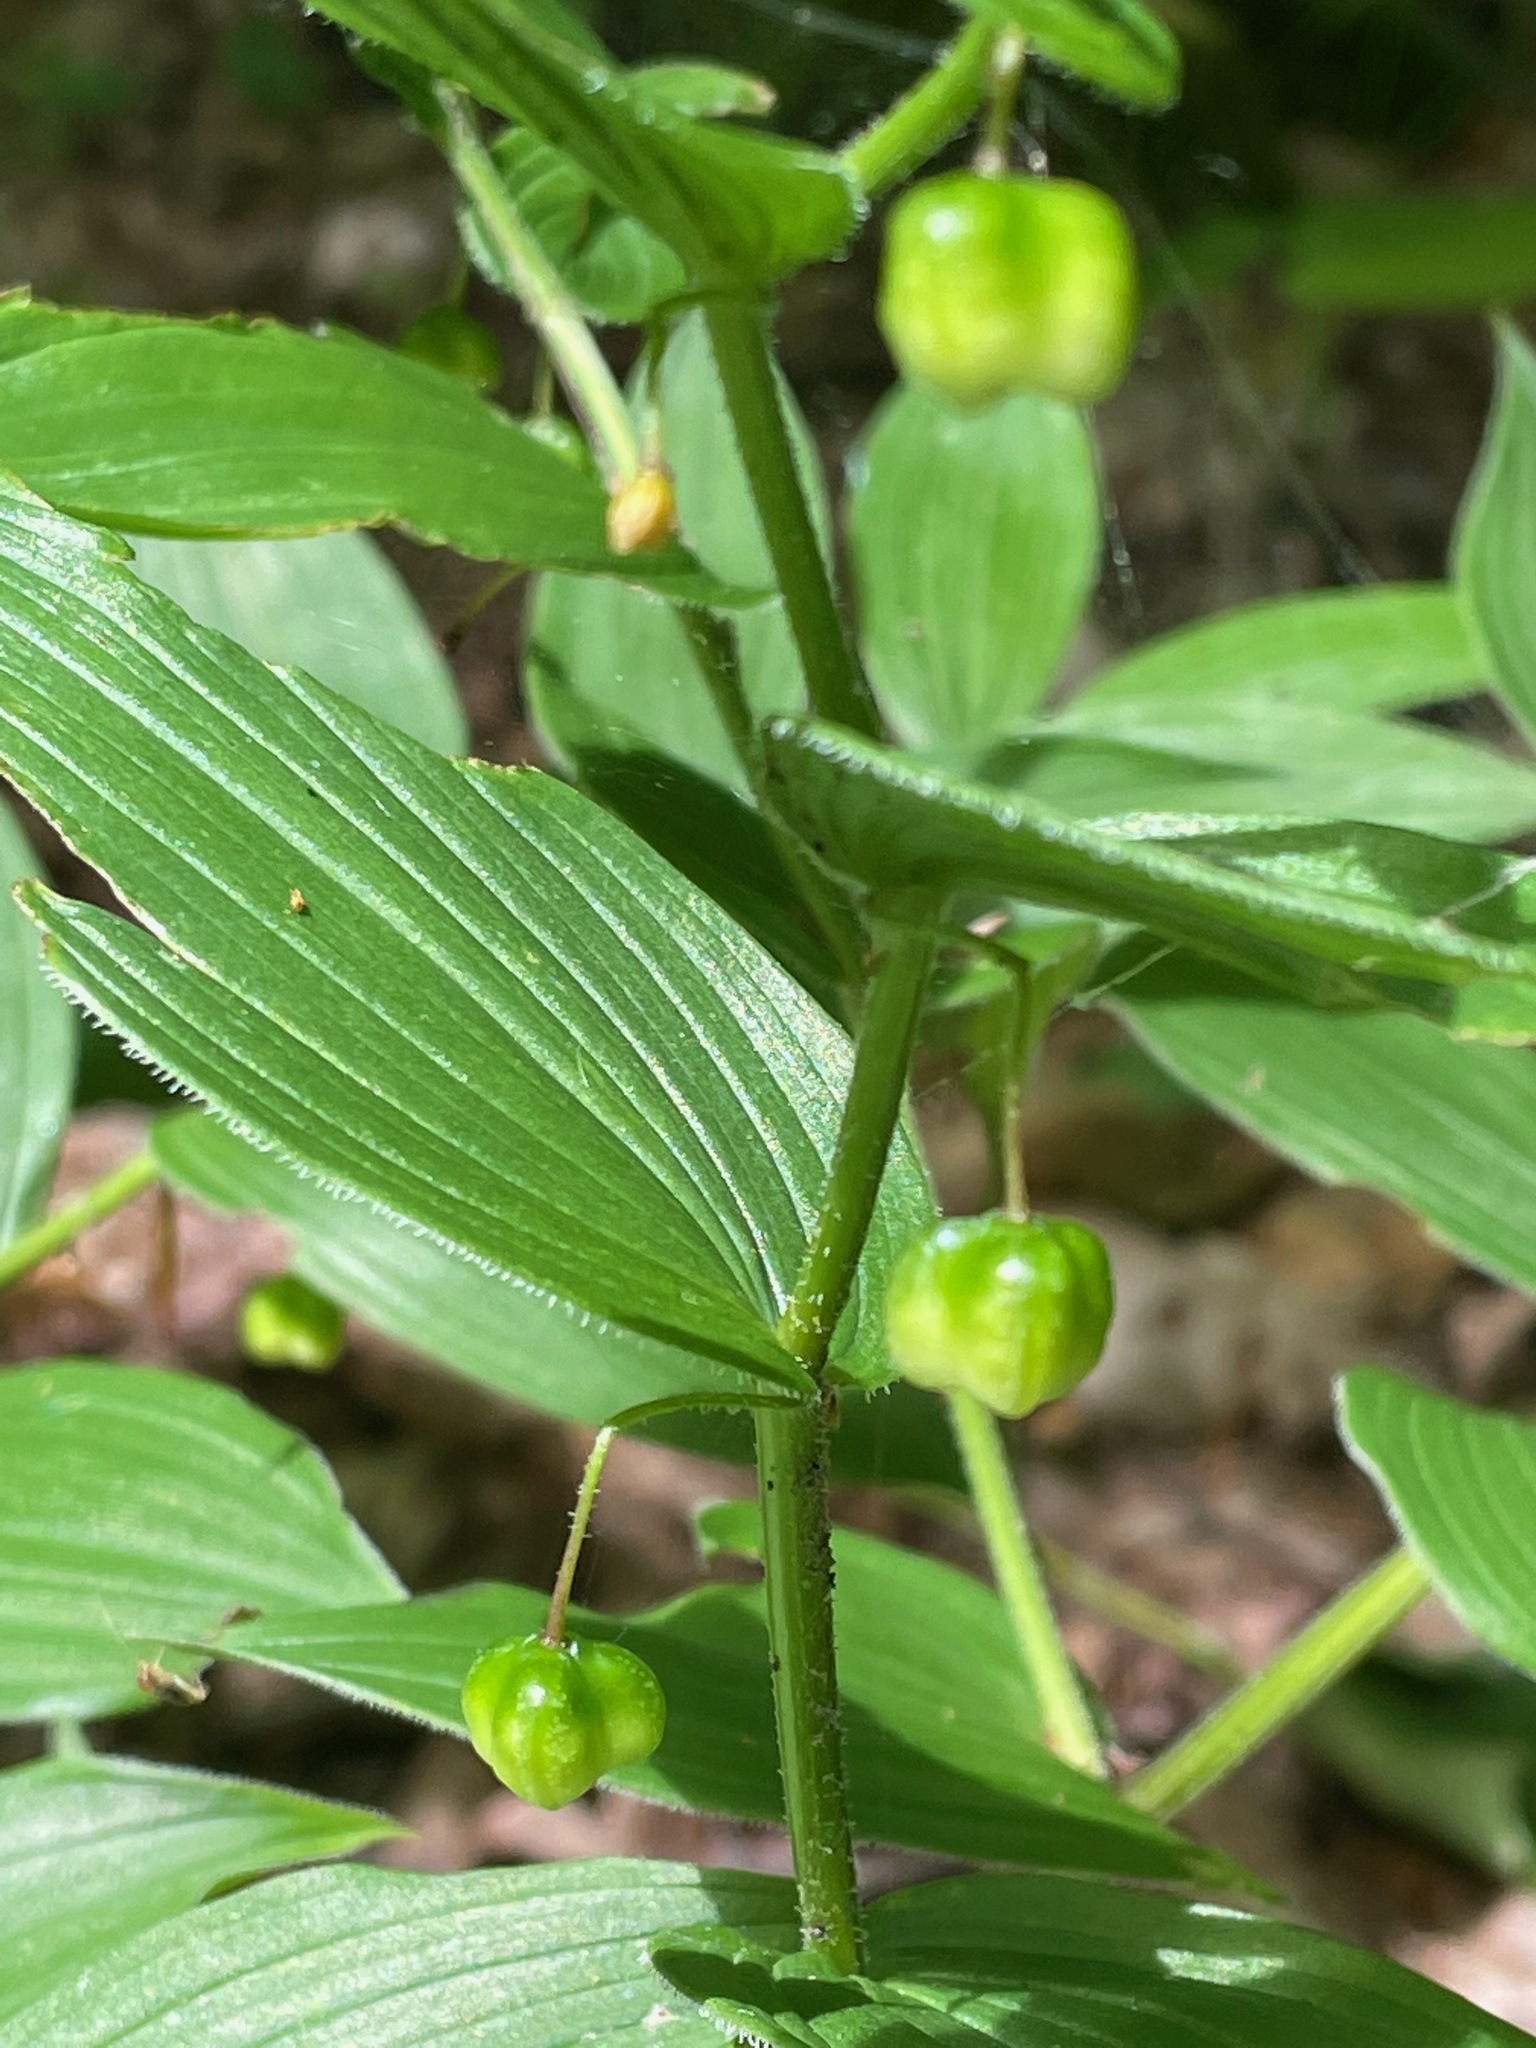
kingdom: Plantae
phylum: Tracheophyta
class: Liliopsida
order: Liliales
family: Liliaceae
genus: Streptopus
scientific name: Streptopus lanceolatus
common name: Rose mandarin
